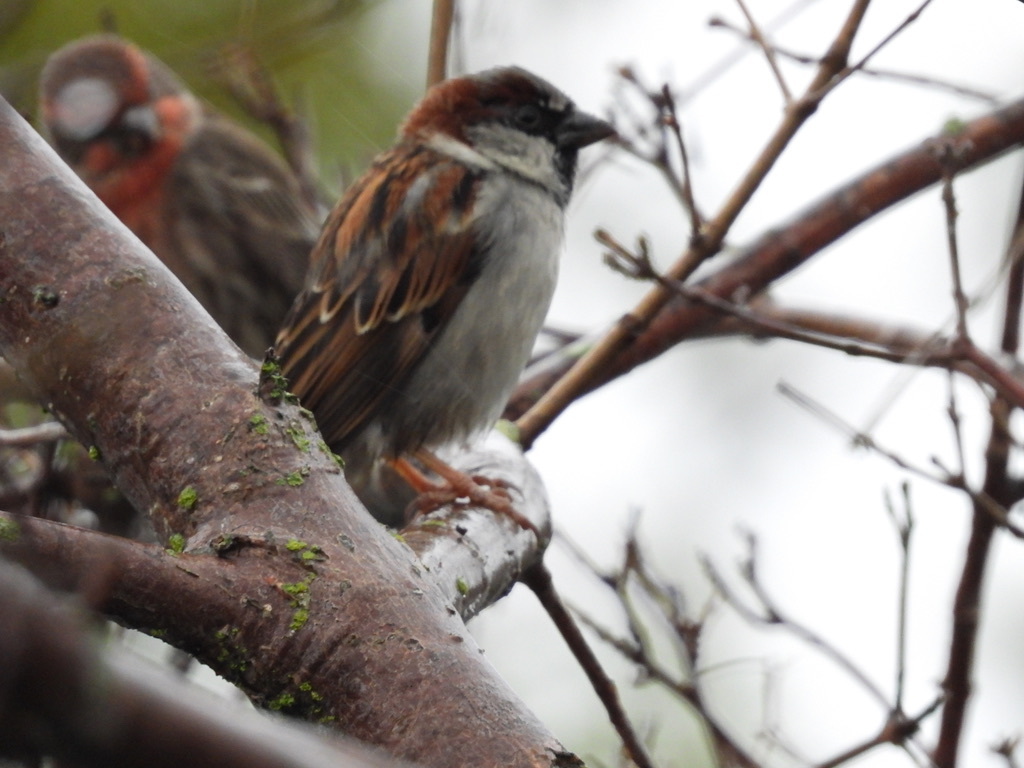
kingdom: Animalia
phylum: Chordata
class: Aves
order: Passeriformes
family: Passeridae
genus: Passer
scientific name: Passer domesticus
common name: House sparrow
